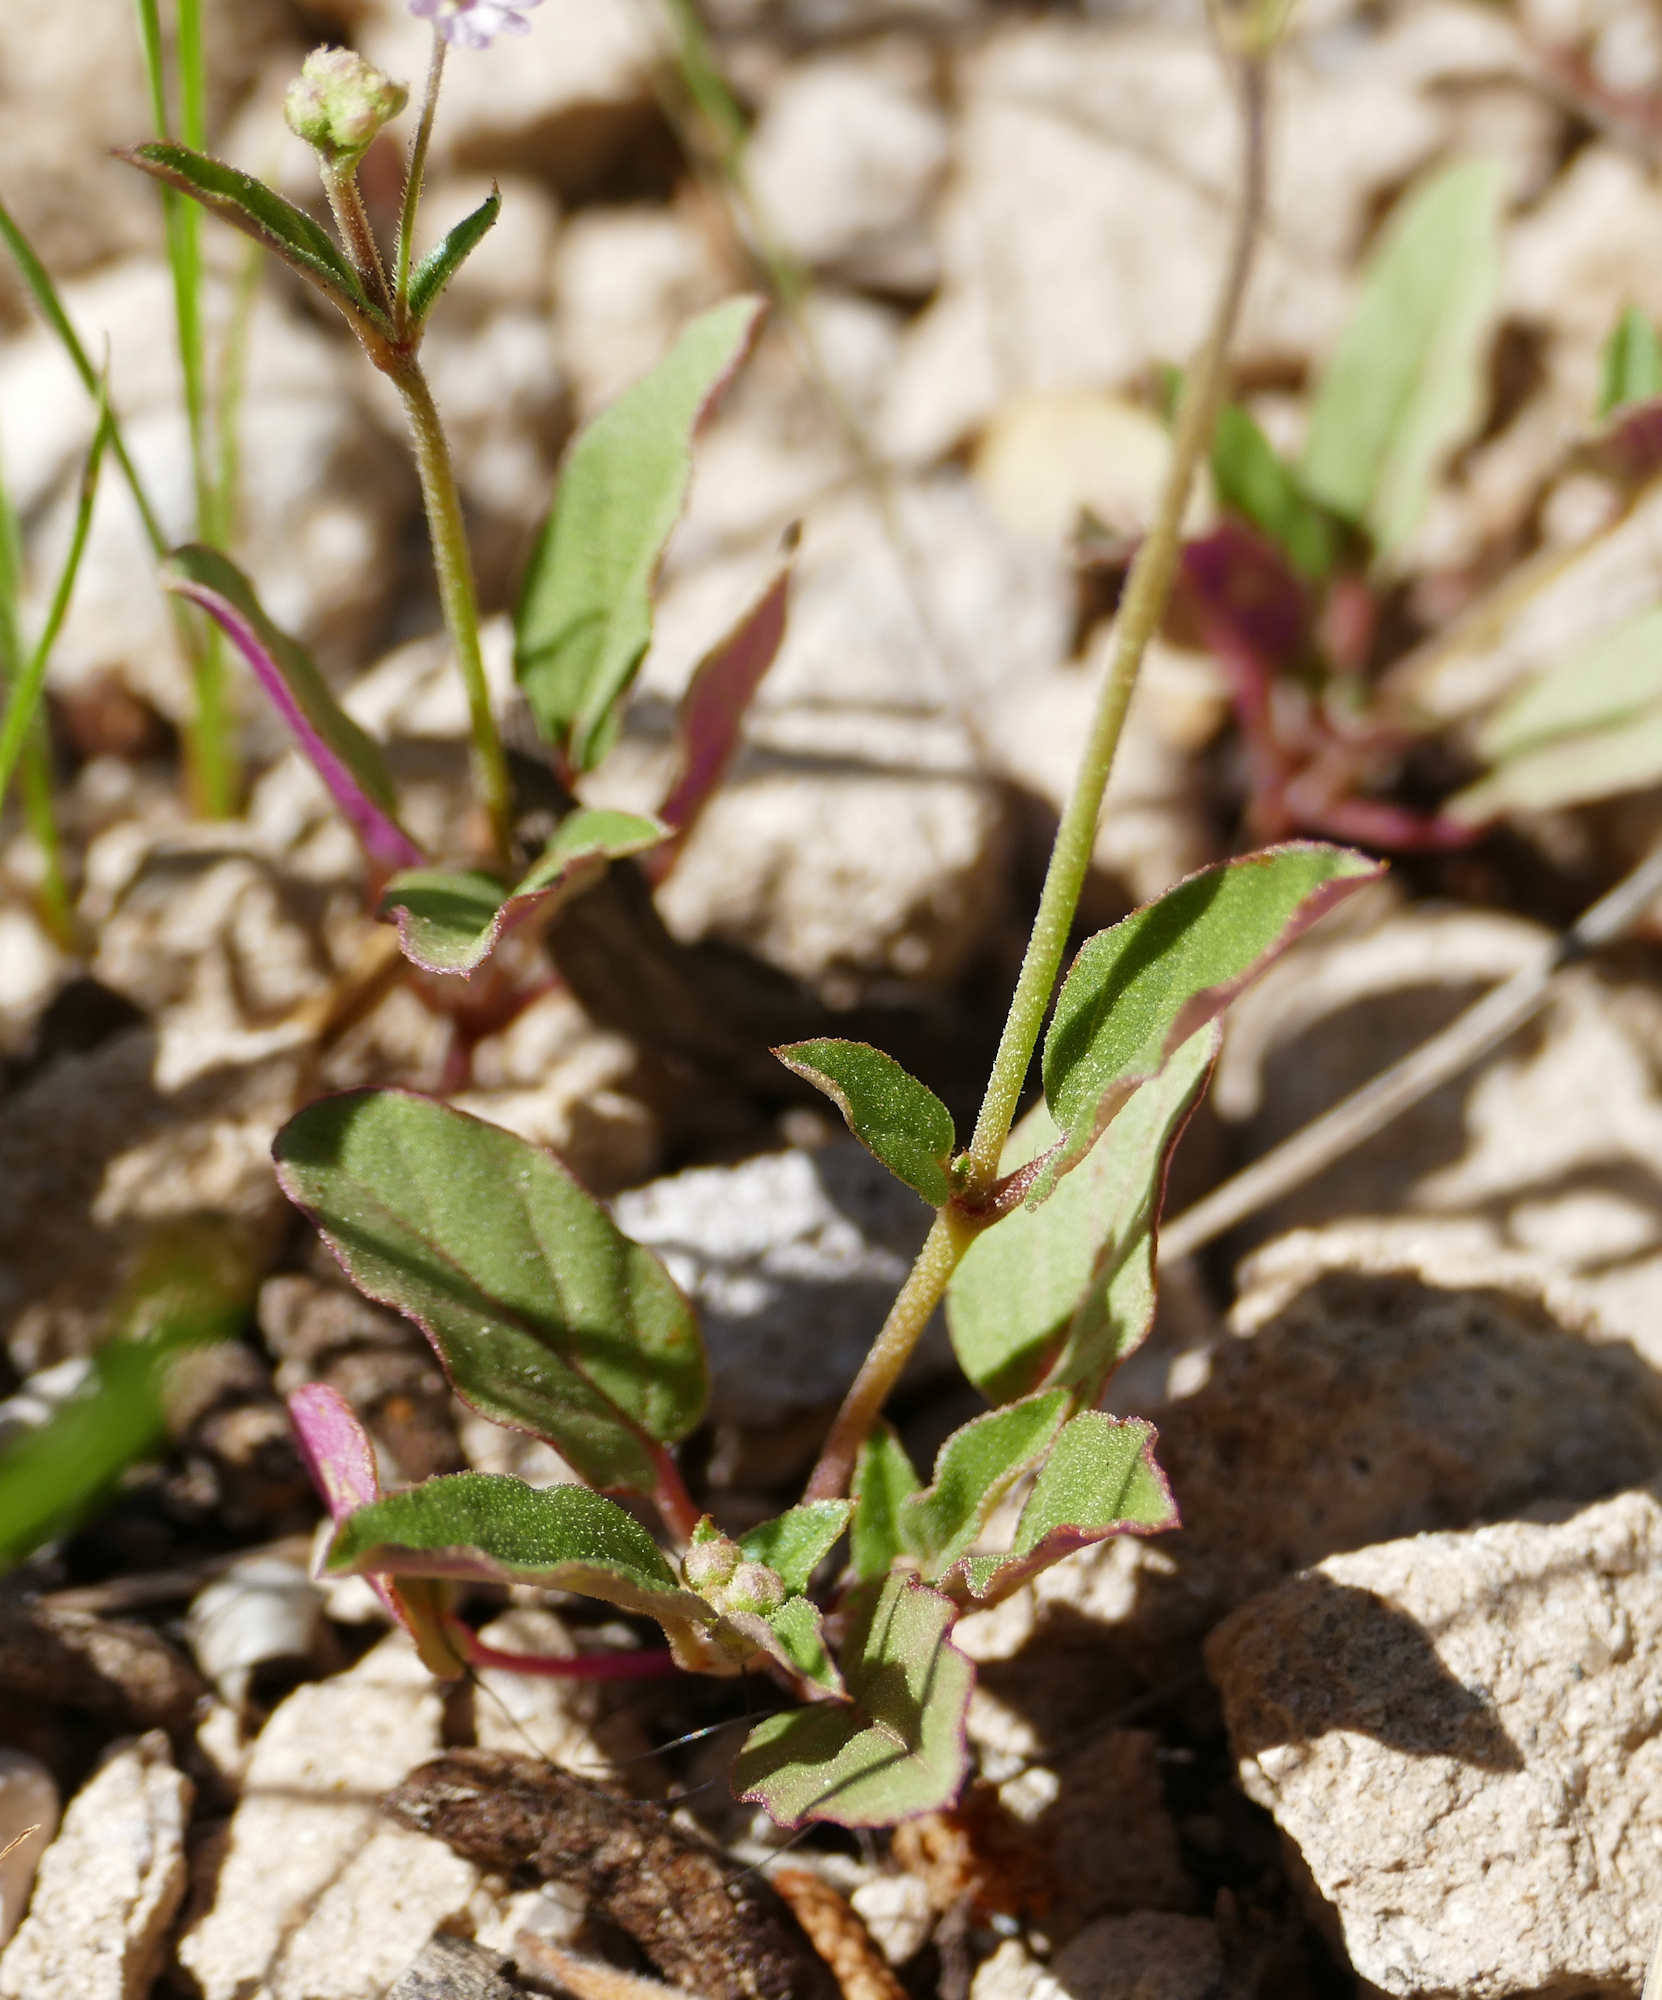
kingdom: Plantae
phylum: Tracheophyta
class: Magnoliopsida
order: Caryophyllales
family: Nyctaginaceae
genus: Boerhavia
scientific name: Boerhavia purpurascens
